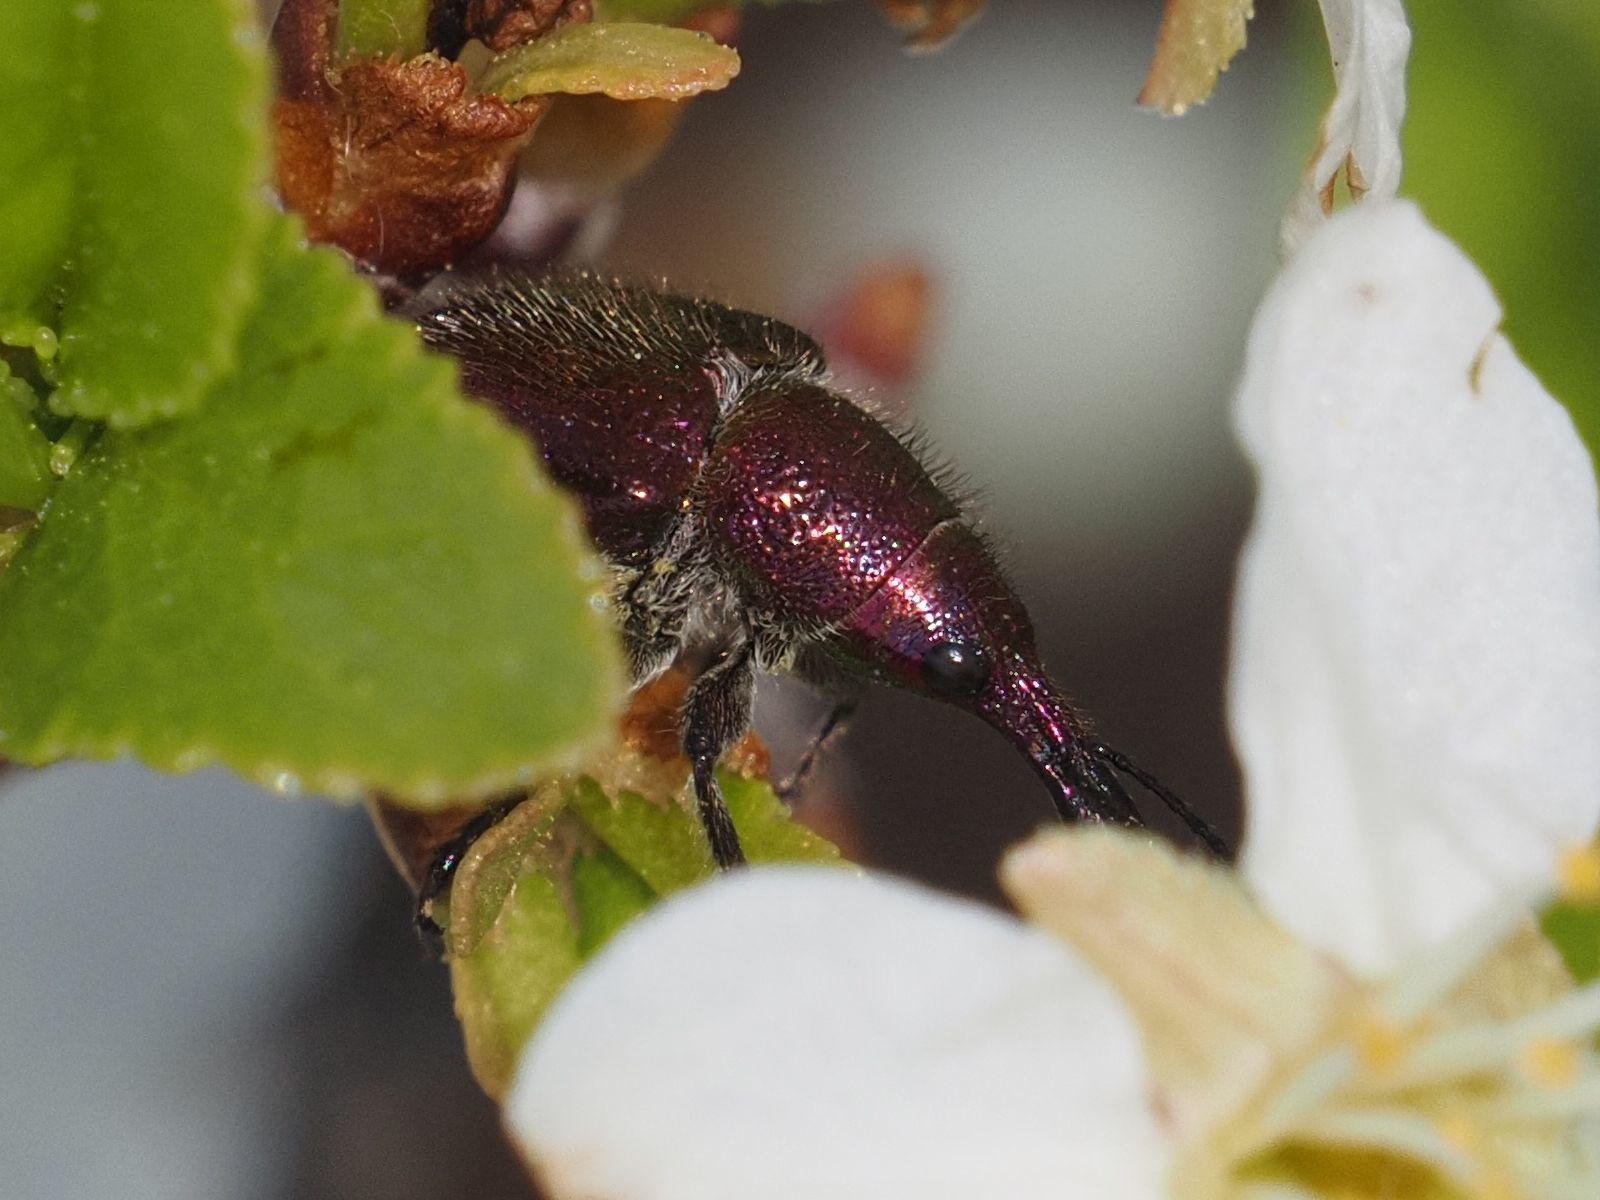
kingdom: Animalia
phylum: Arthropoda
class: Insecta
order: Coleoptera
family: Attelabidae
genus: Rhynchites
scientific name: Rhynchites auratus
